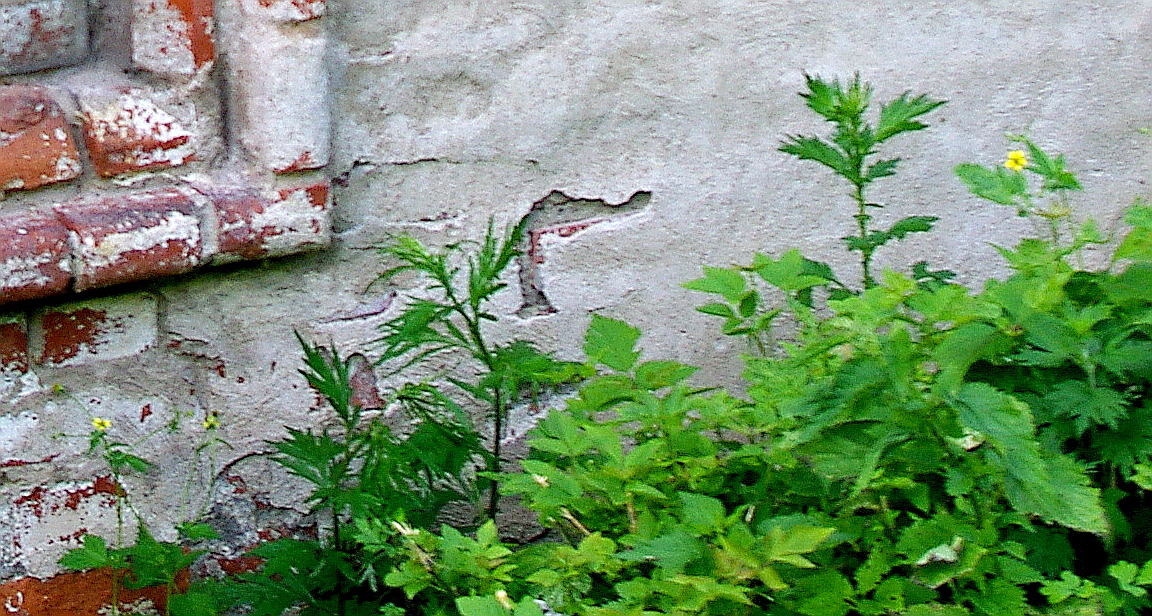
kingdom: Plantae
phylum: Tracheophyta
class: Magnoliopsida
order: Asterales
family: Asteraceae
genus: Artemisia
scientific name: Artemisia vulgaris
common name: Mugwort
